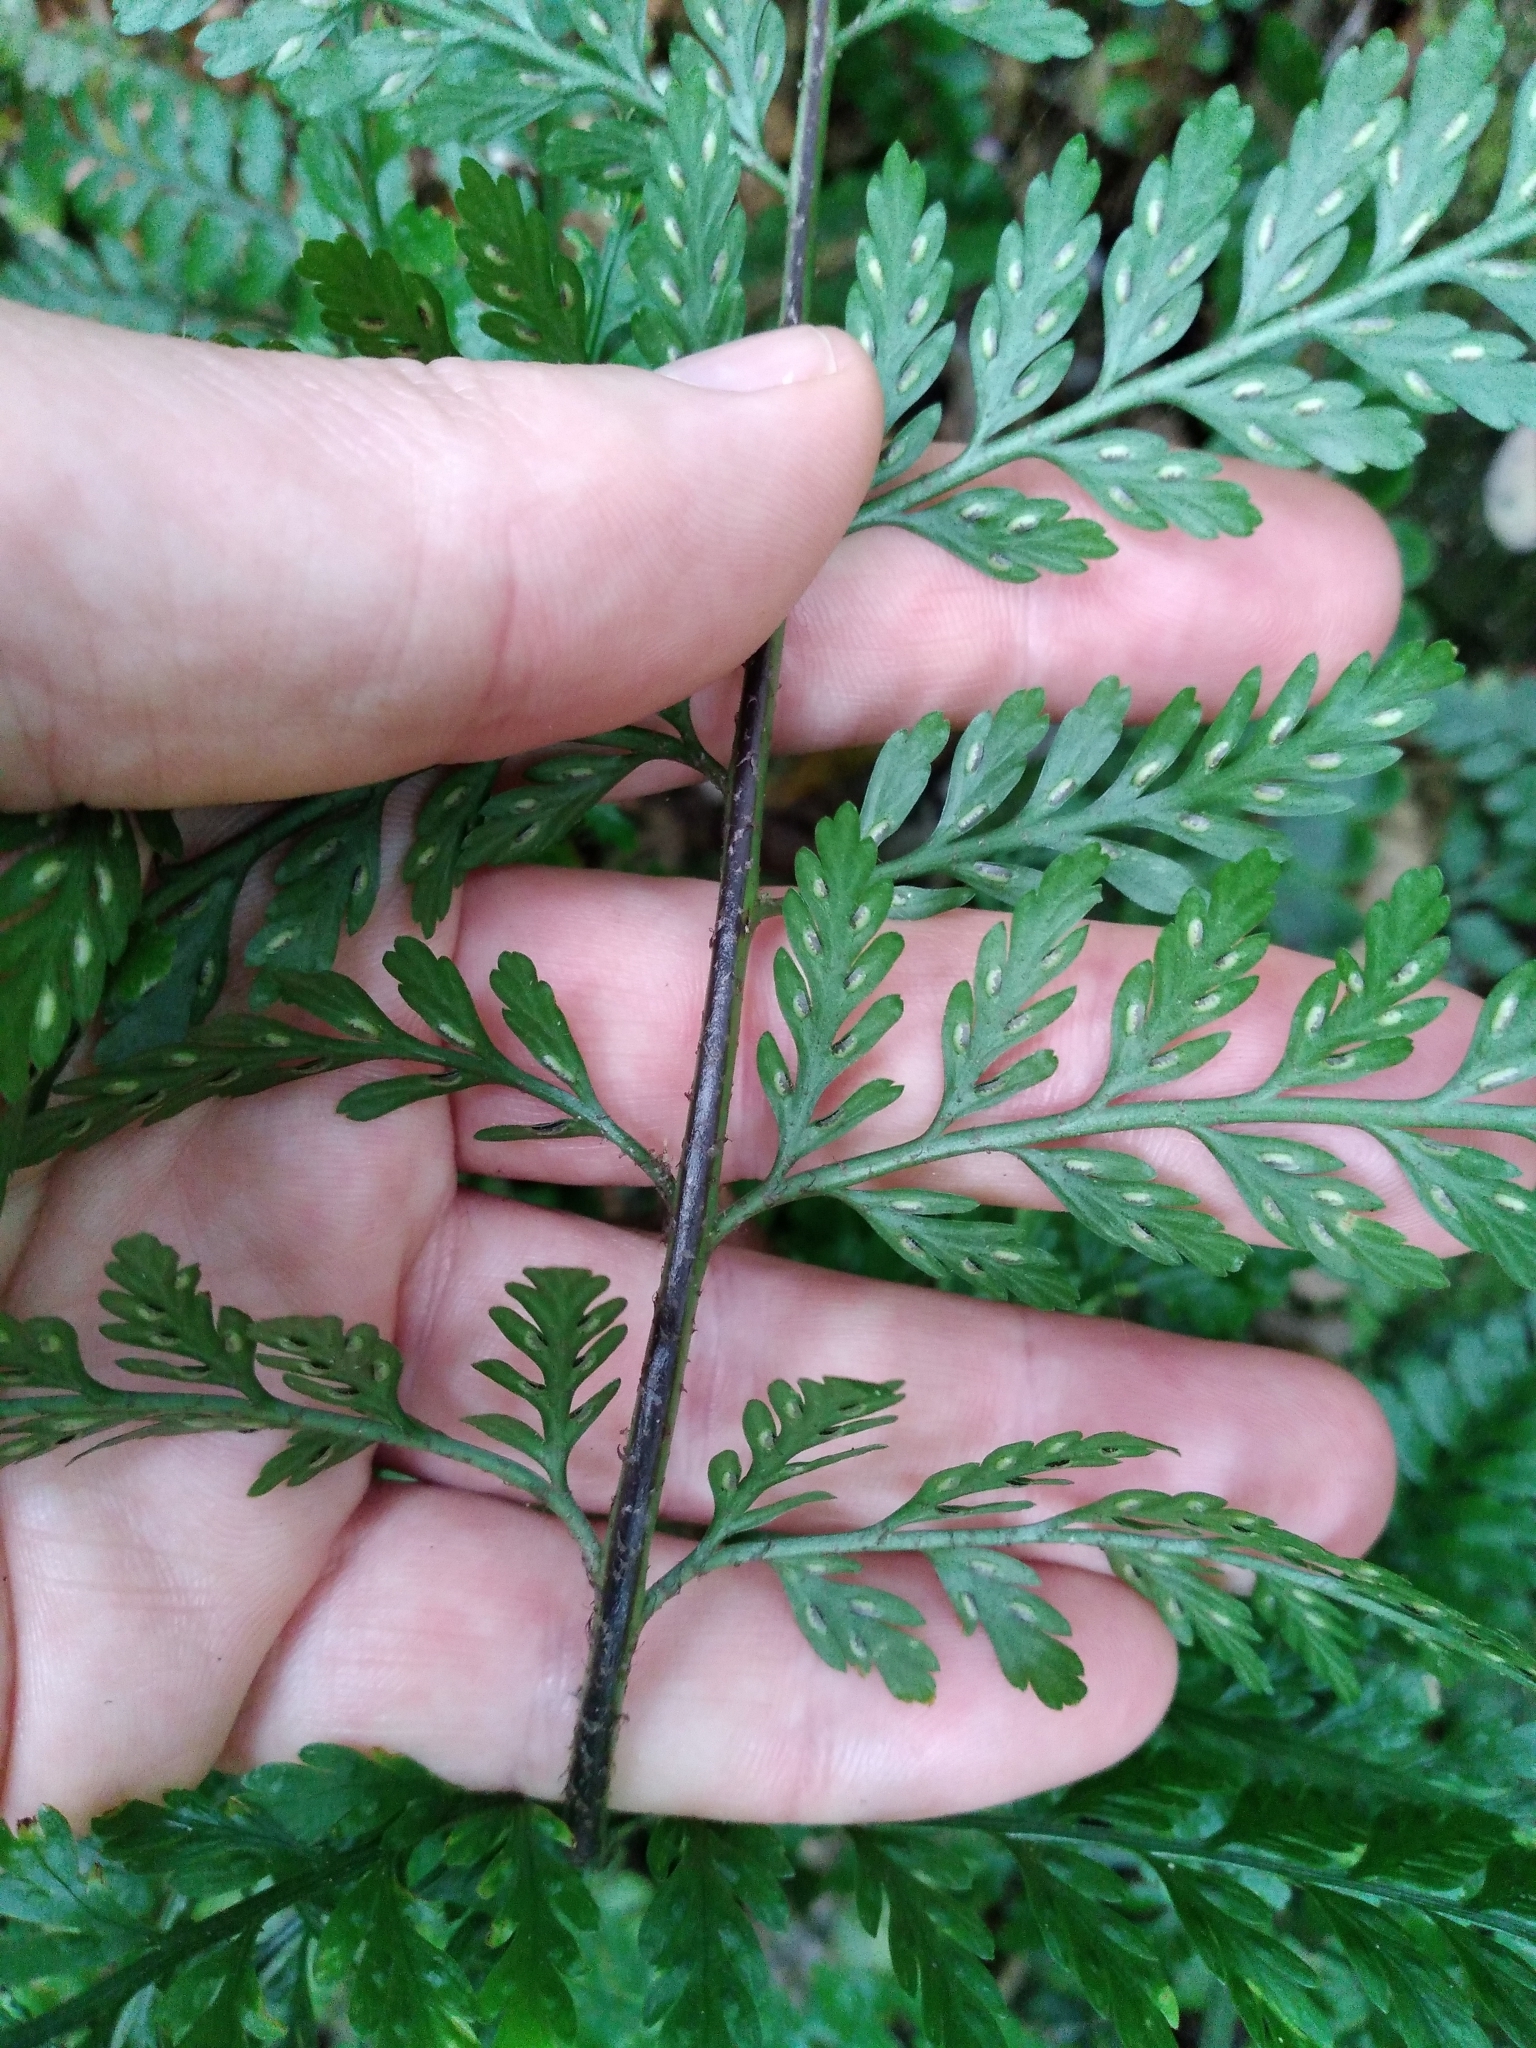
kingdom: Plantae
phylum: Tracheophyta
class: Polypodiopsida
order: Polypodiales
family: Aspleniaceae
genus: Asplenium
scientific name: Asplenium
